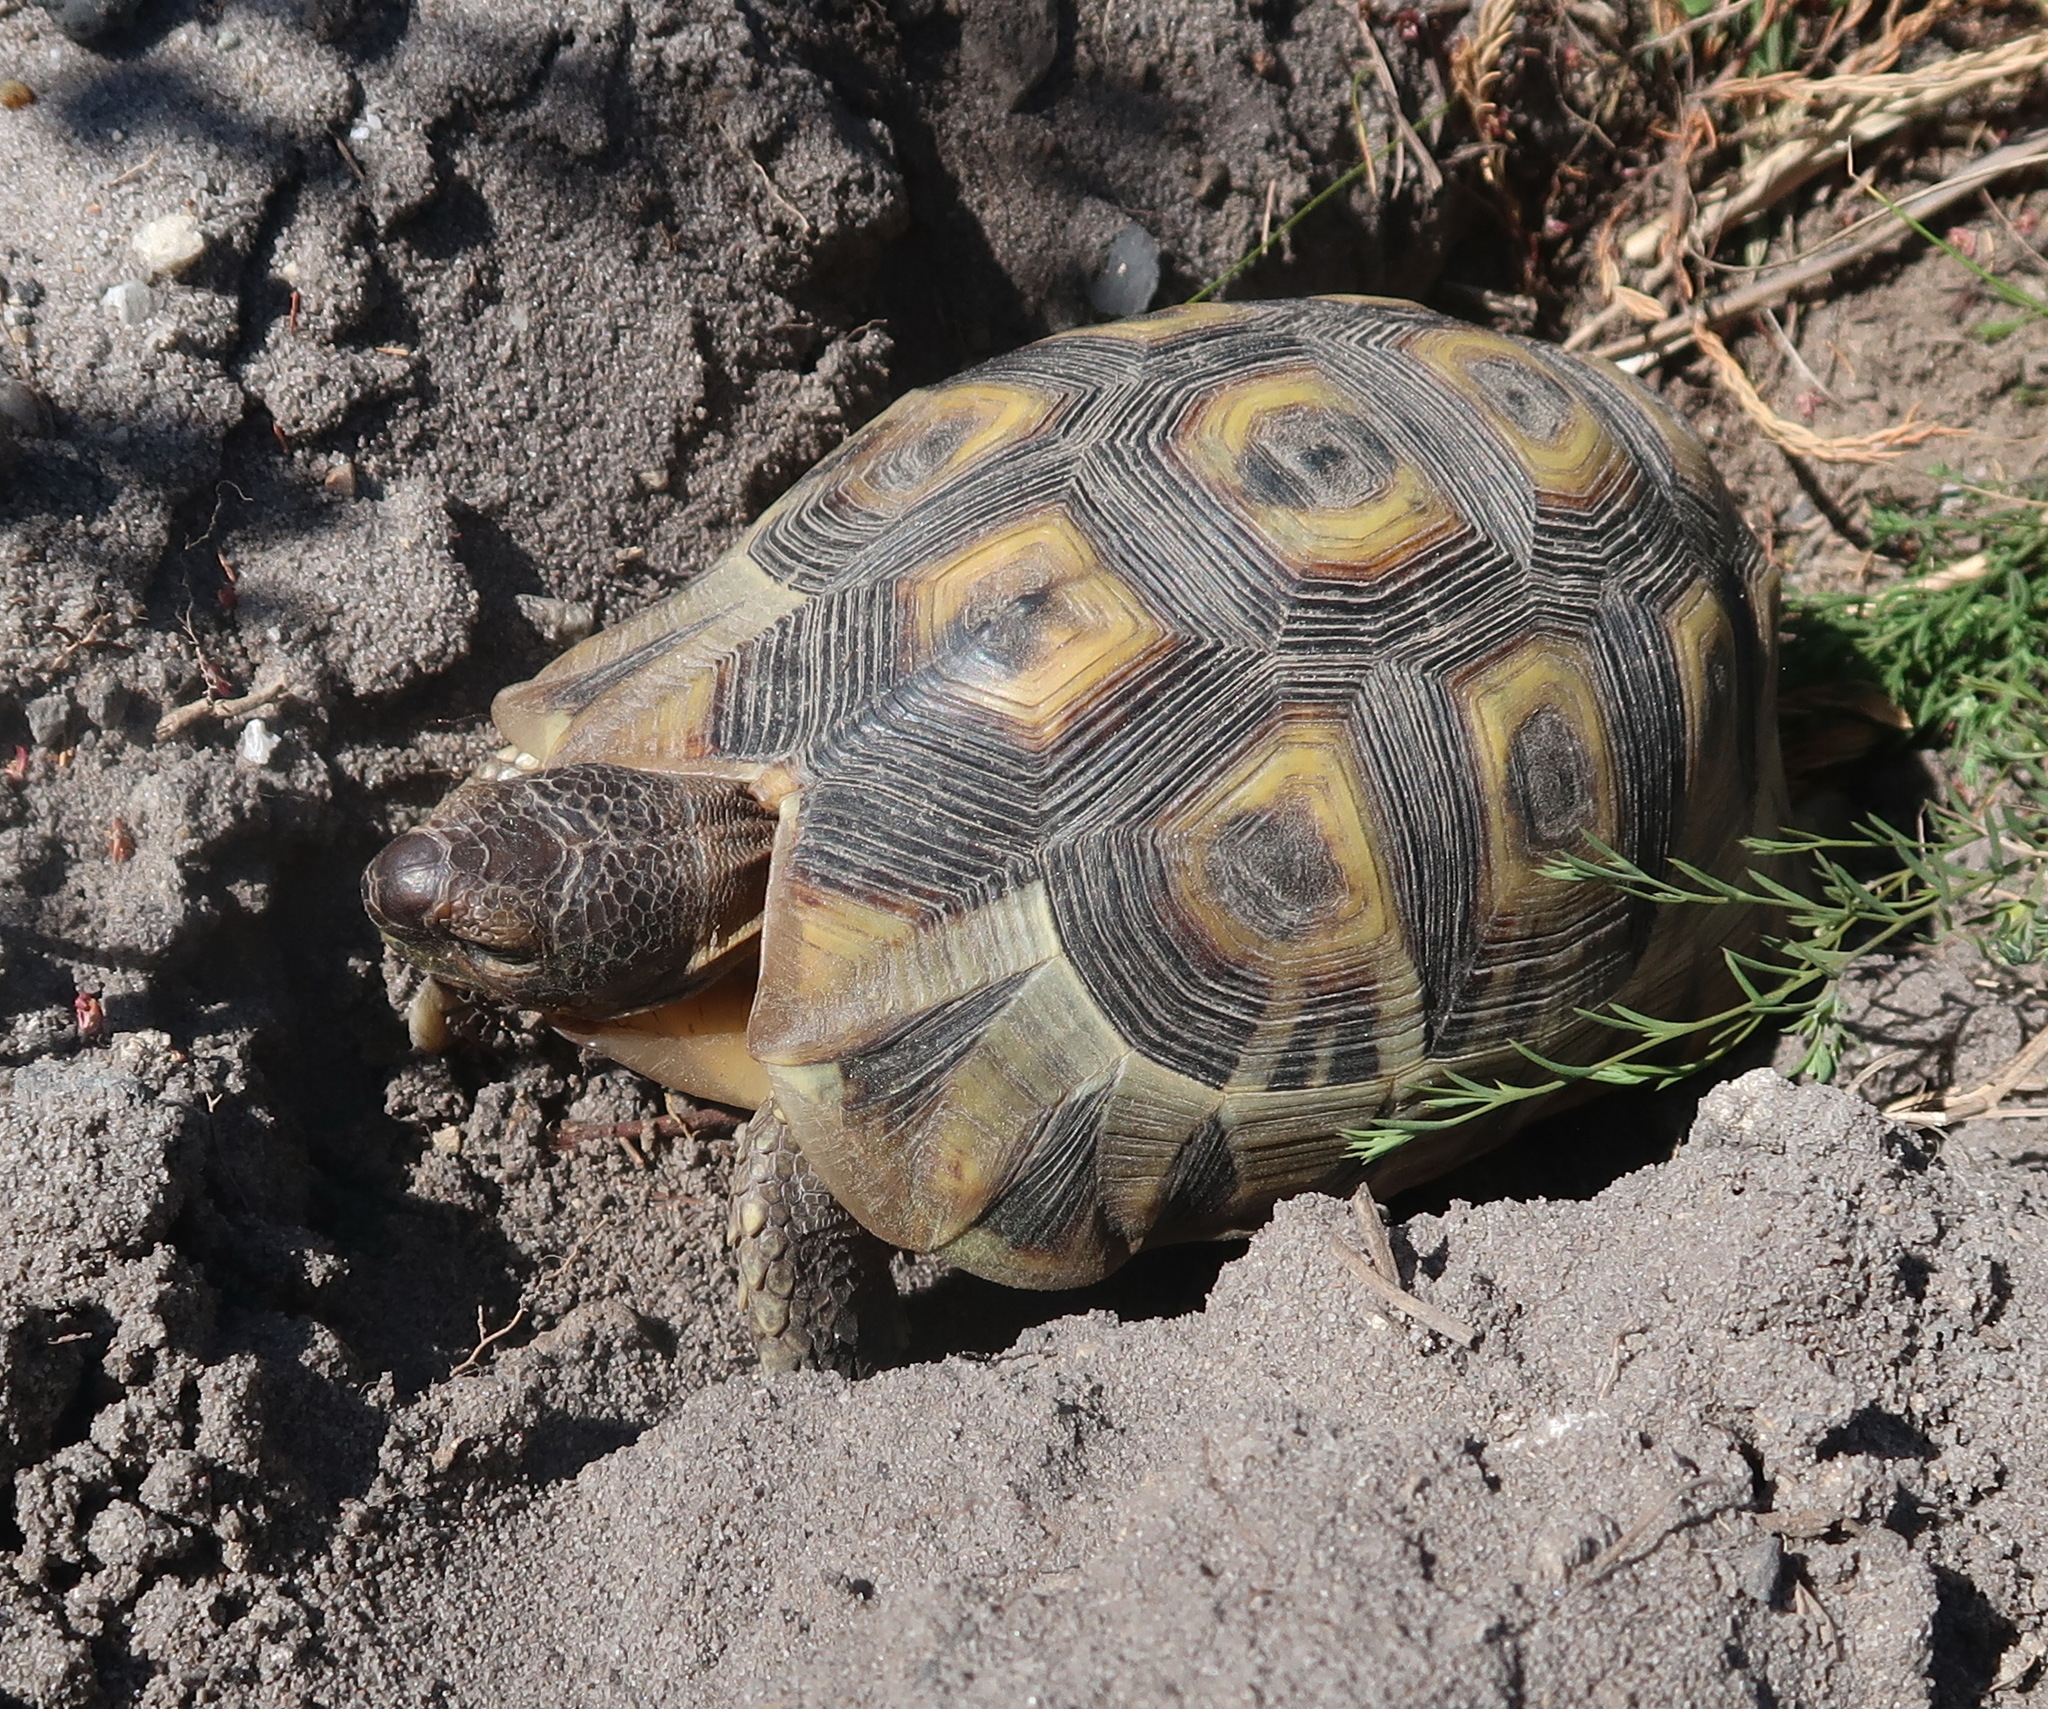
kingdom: Animalia
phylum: Chordata
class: Testudines
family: Testudinidae
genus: Chersina
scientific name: Chersina angulata
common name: South african bowsprit tortoise
